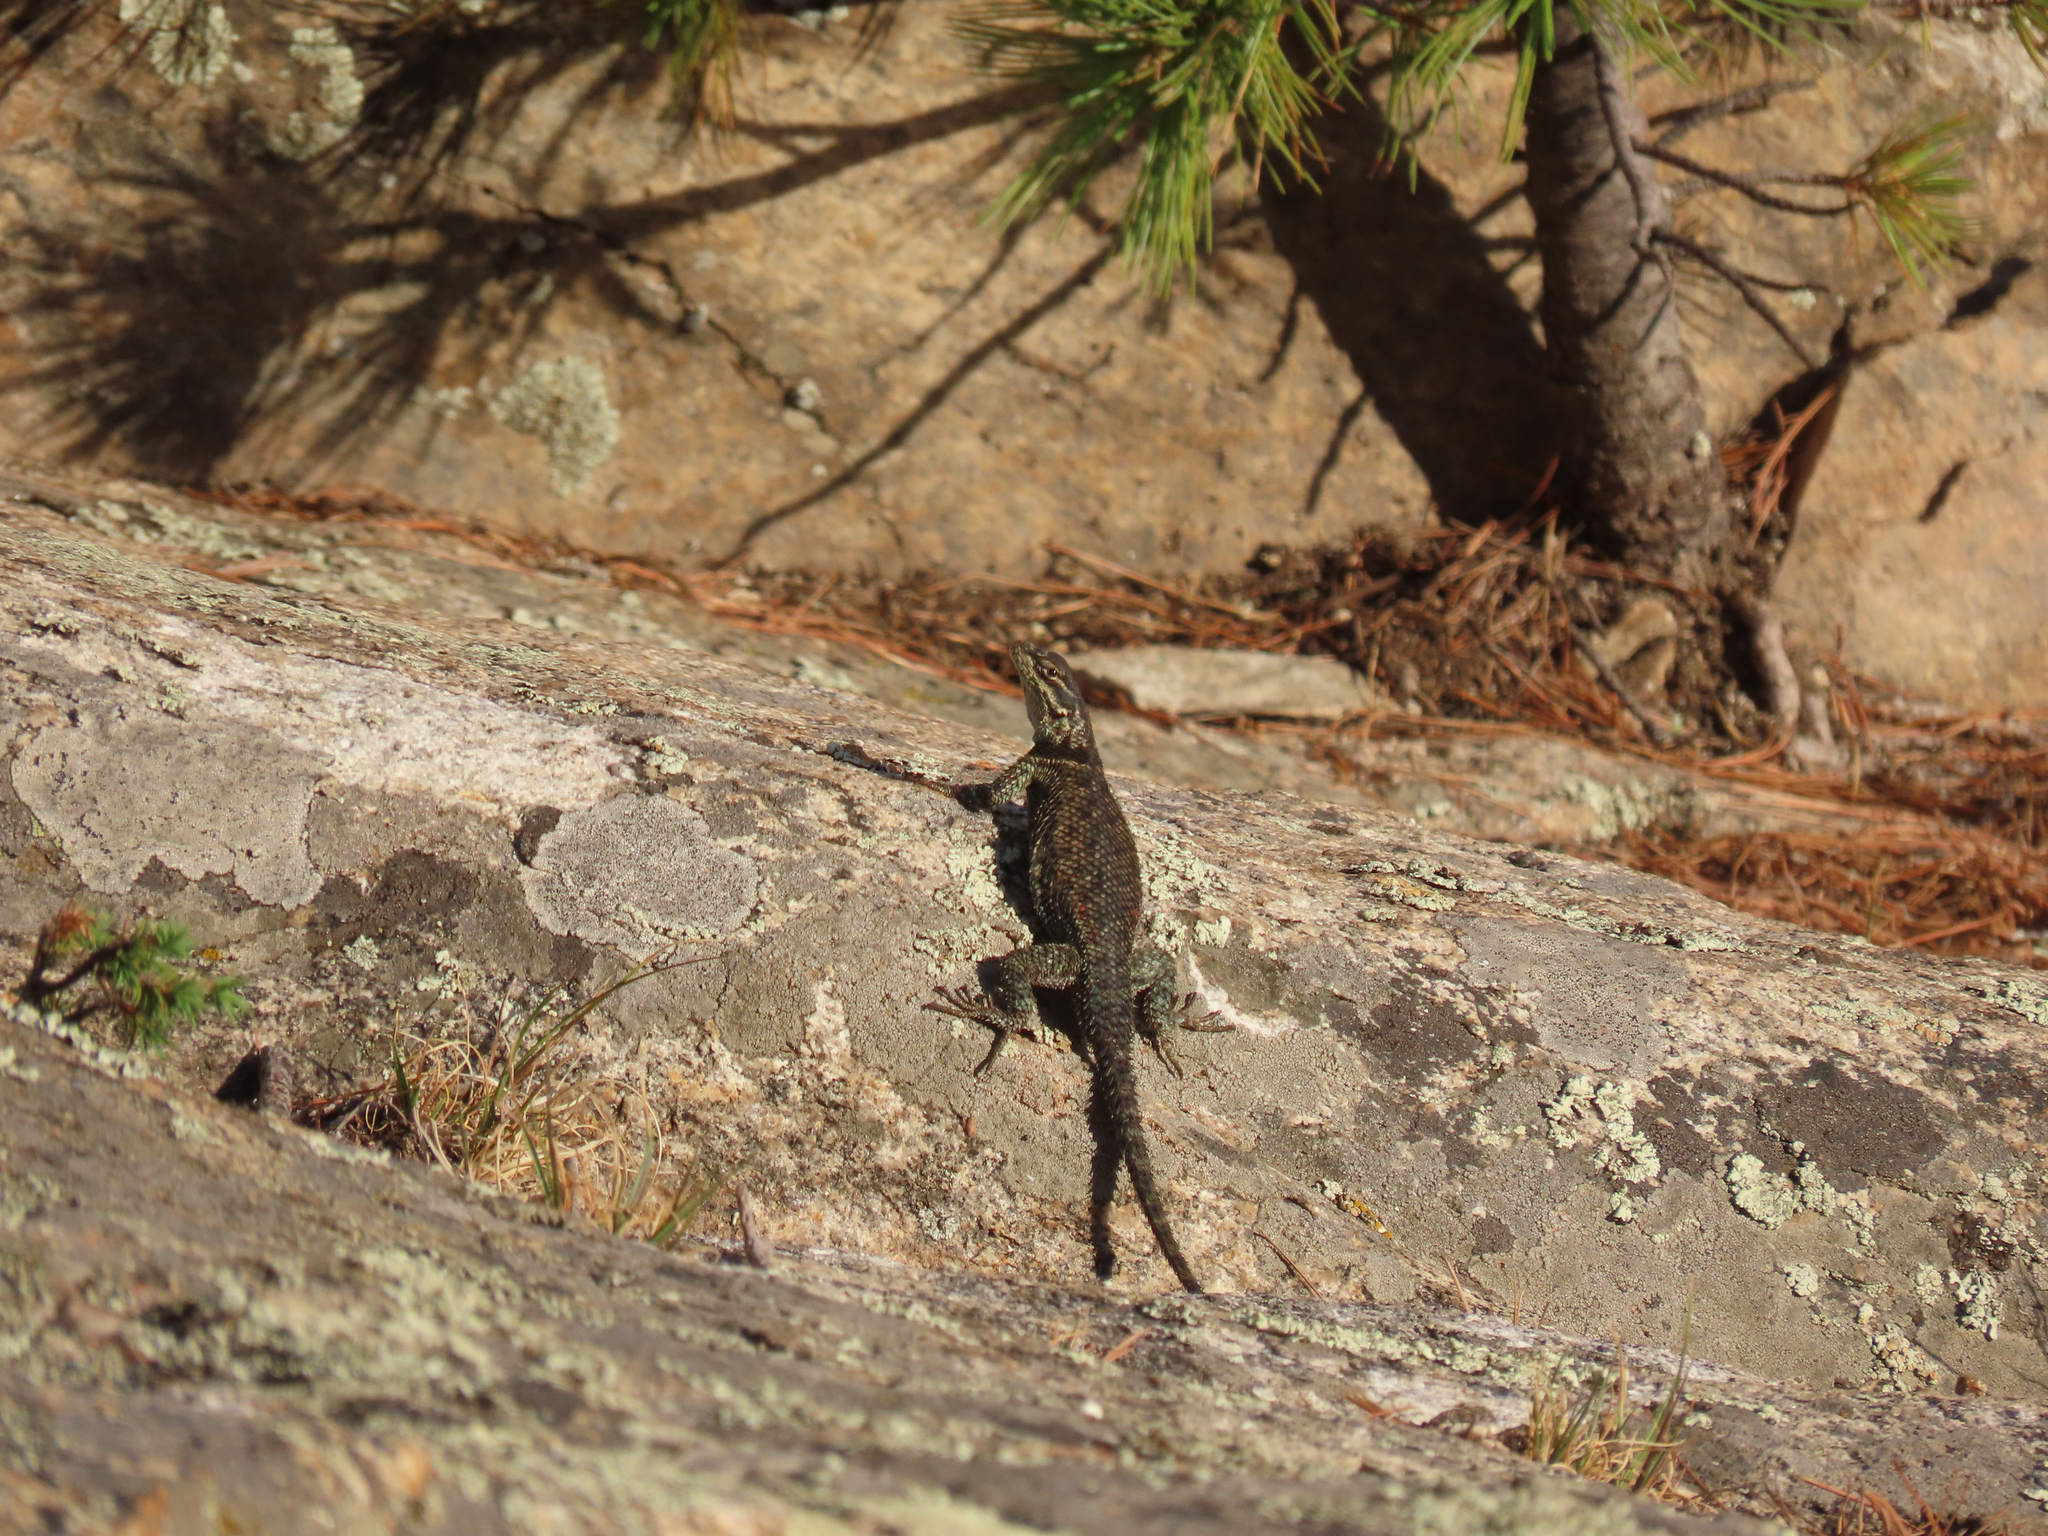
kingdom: Animalia
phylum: Chordata
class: Squamata
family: Phrynosomatidae
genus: Sceloporus
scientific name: Sceloporus jarrovii
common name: Yarrow's spiny lizard
